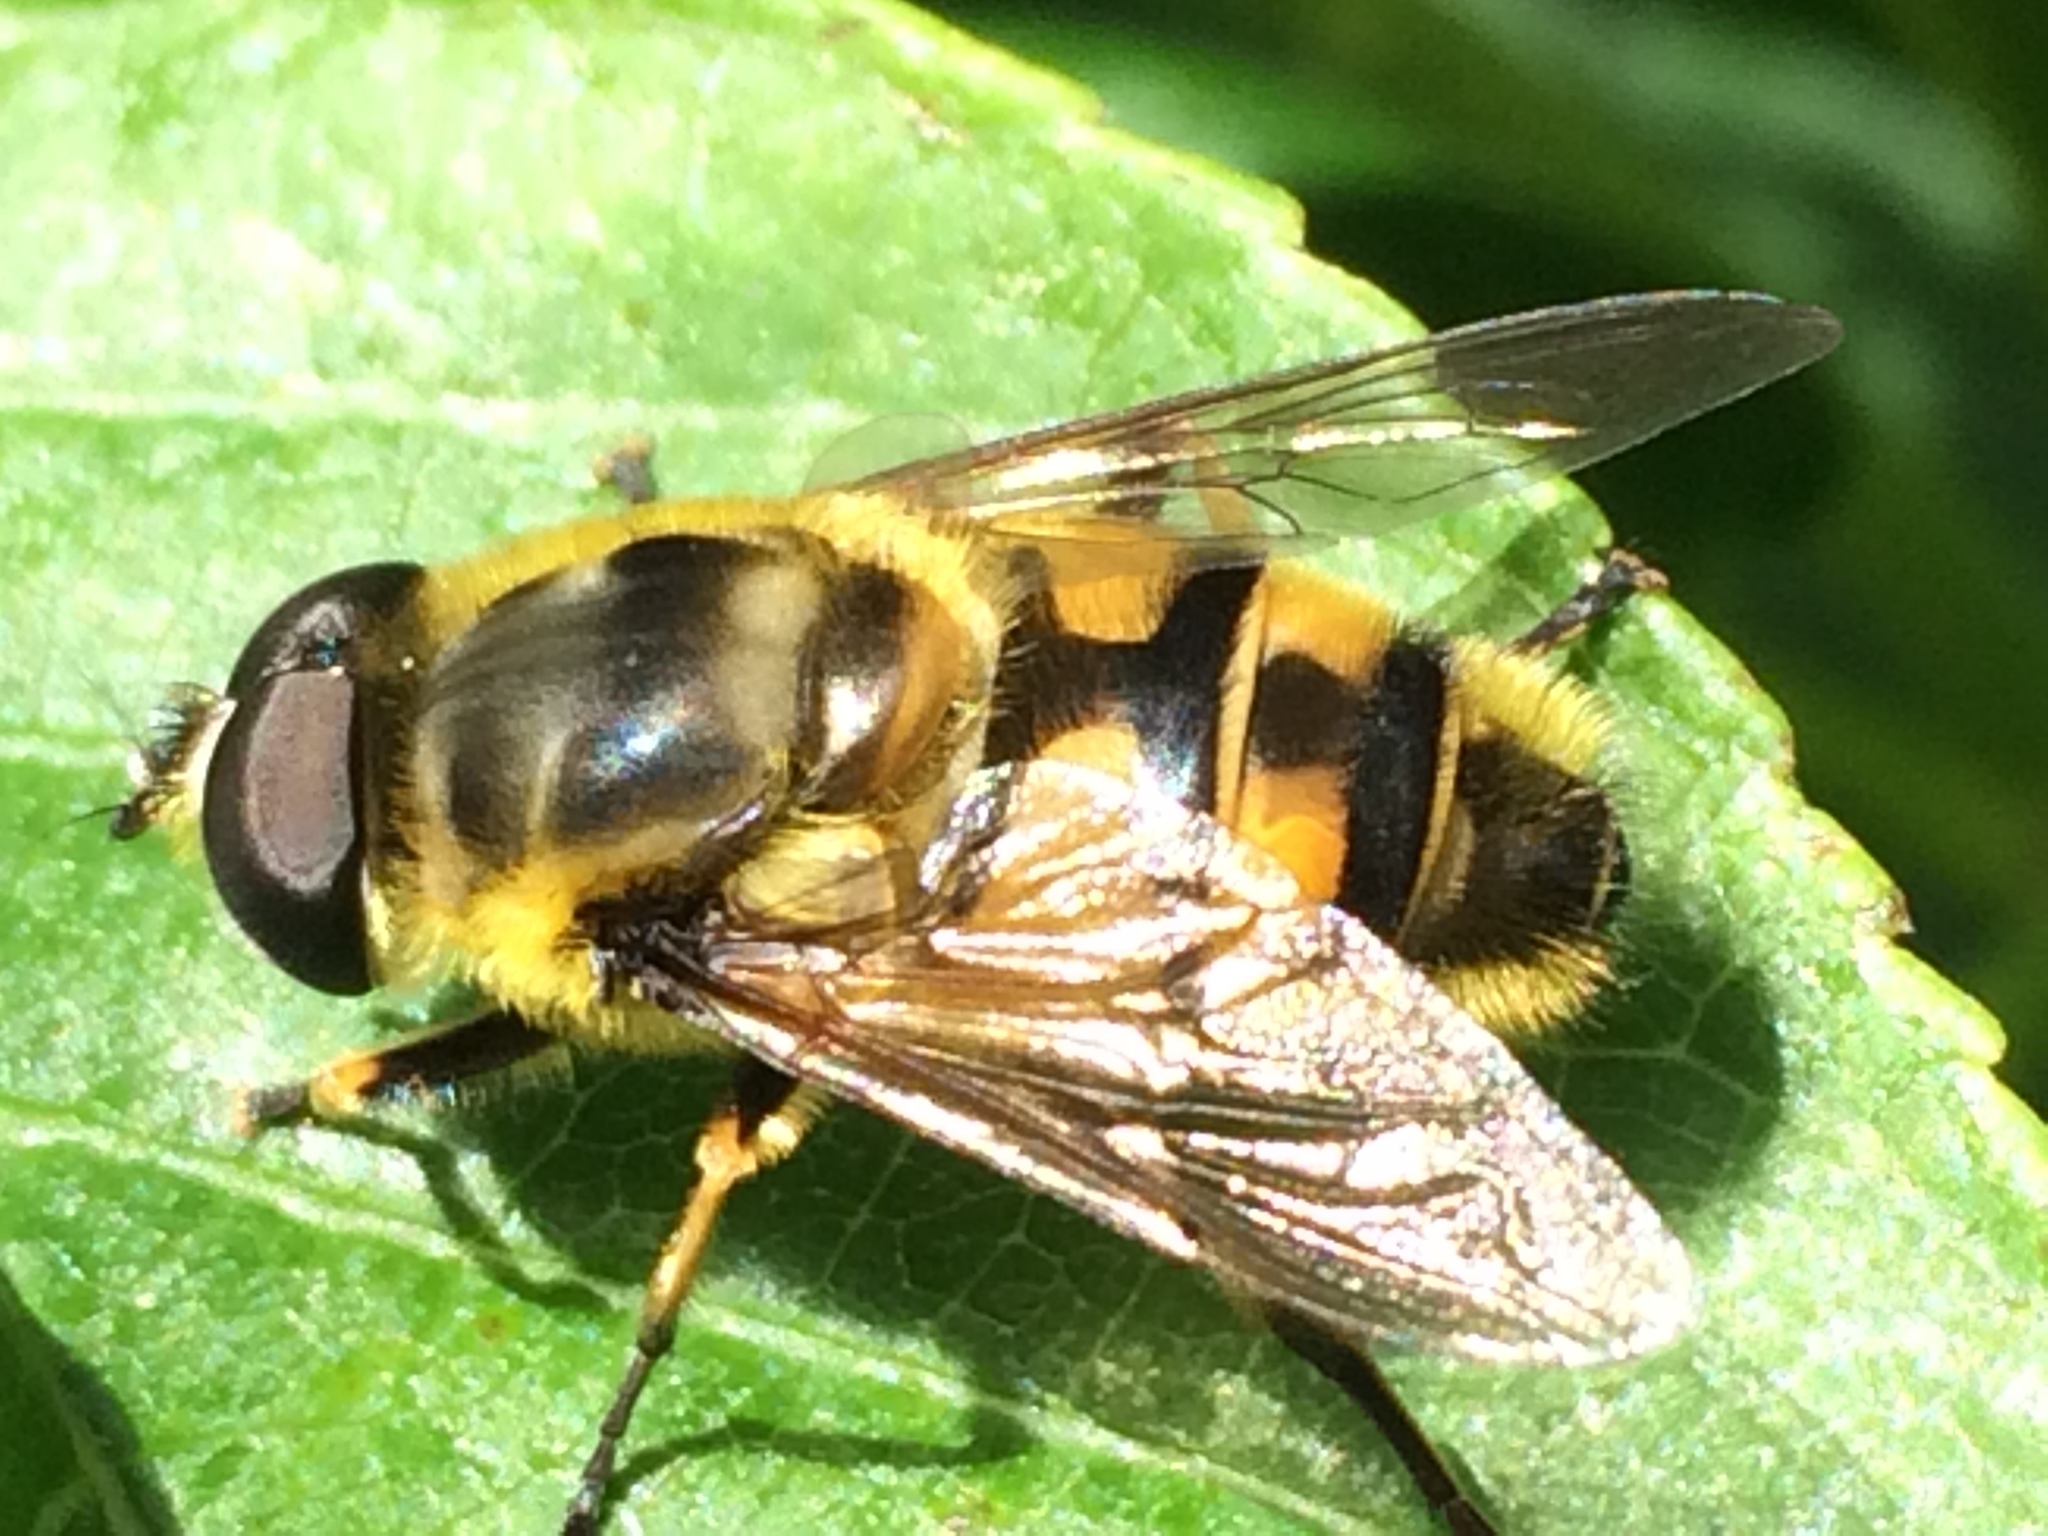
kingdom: Animalia
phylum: Arthropoda
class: Insecta
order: Diptera
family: Syrphidae
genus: Myathropa
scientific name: Myathropa florea
